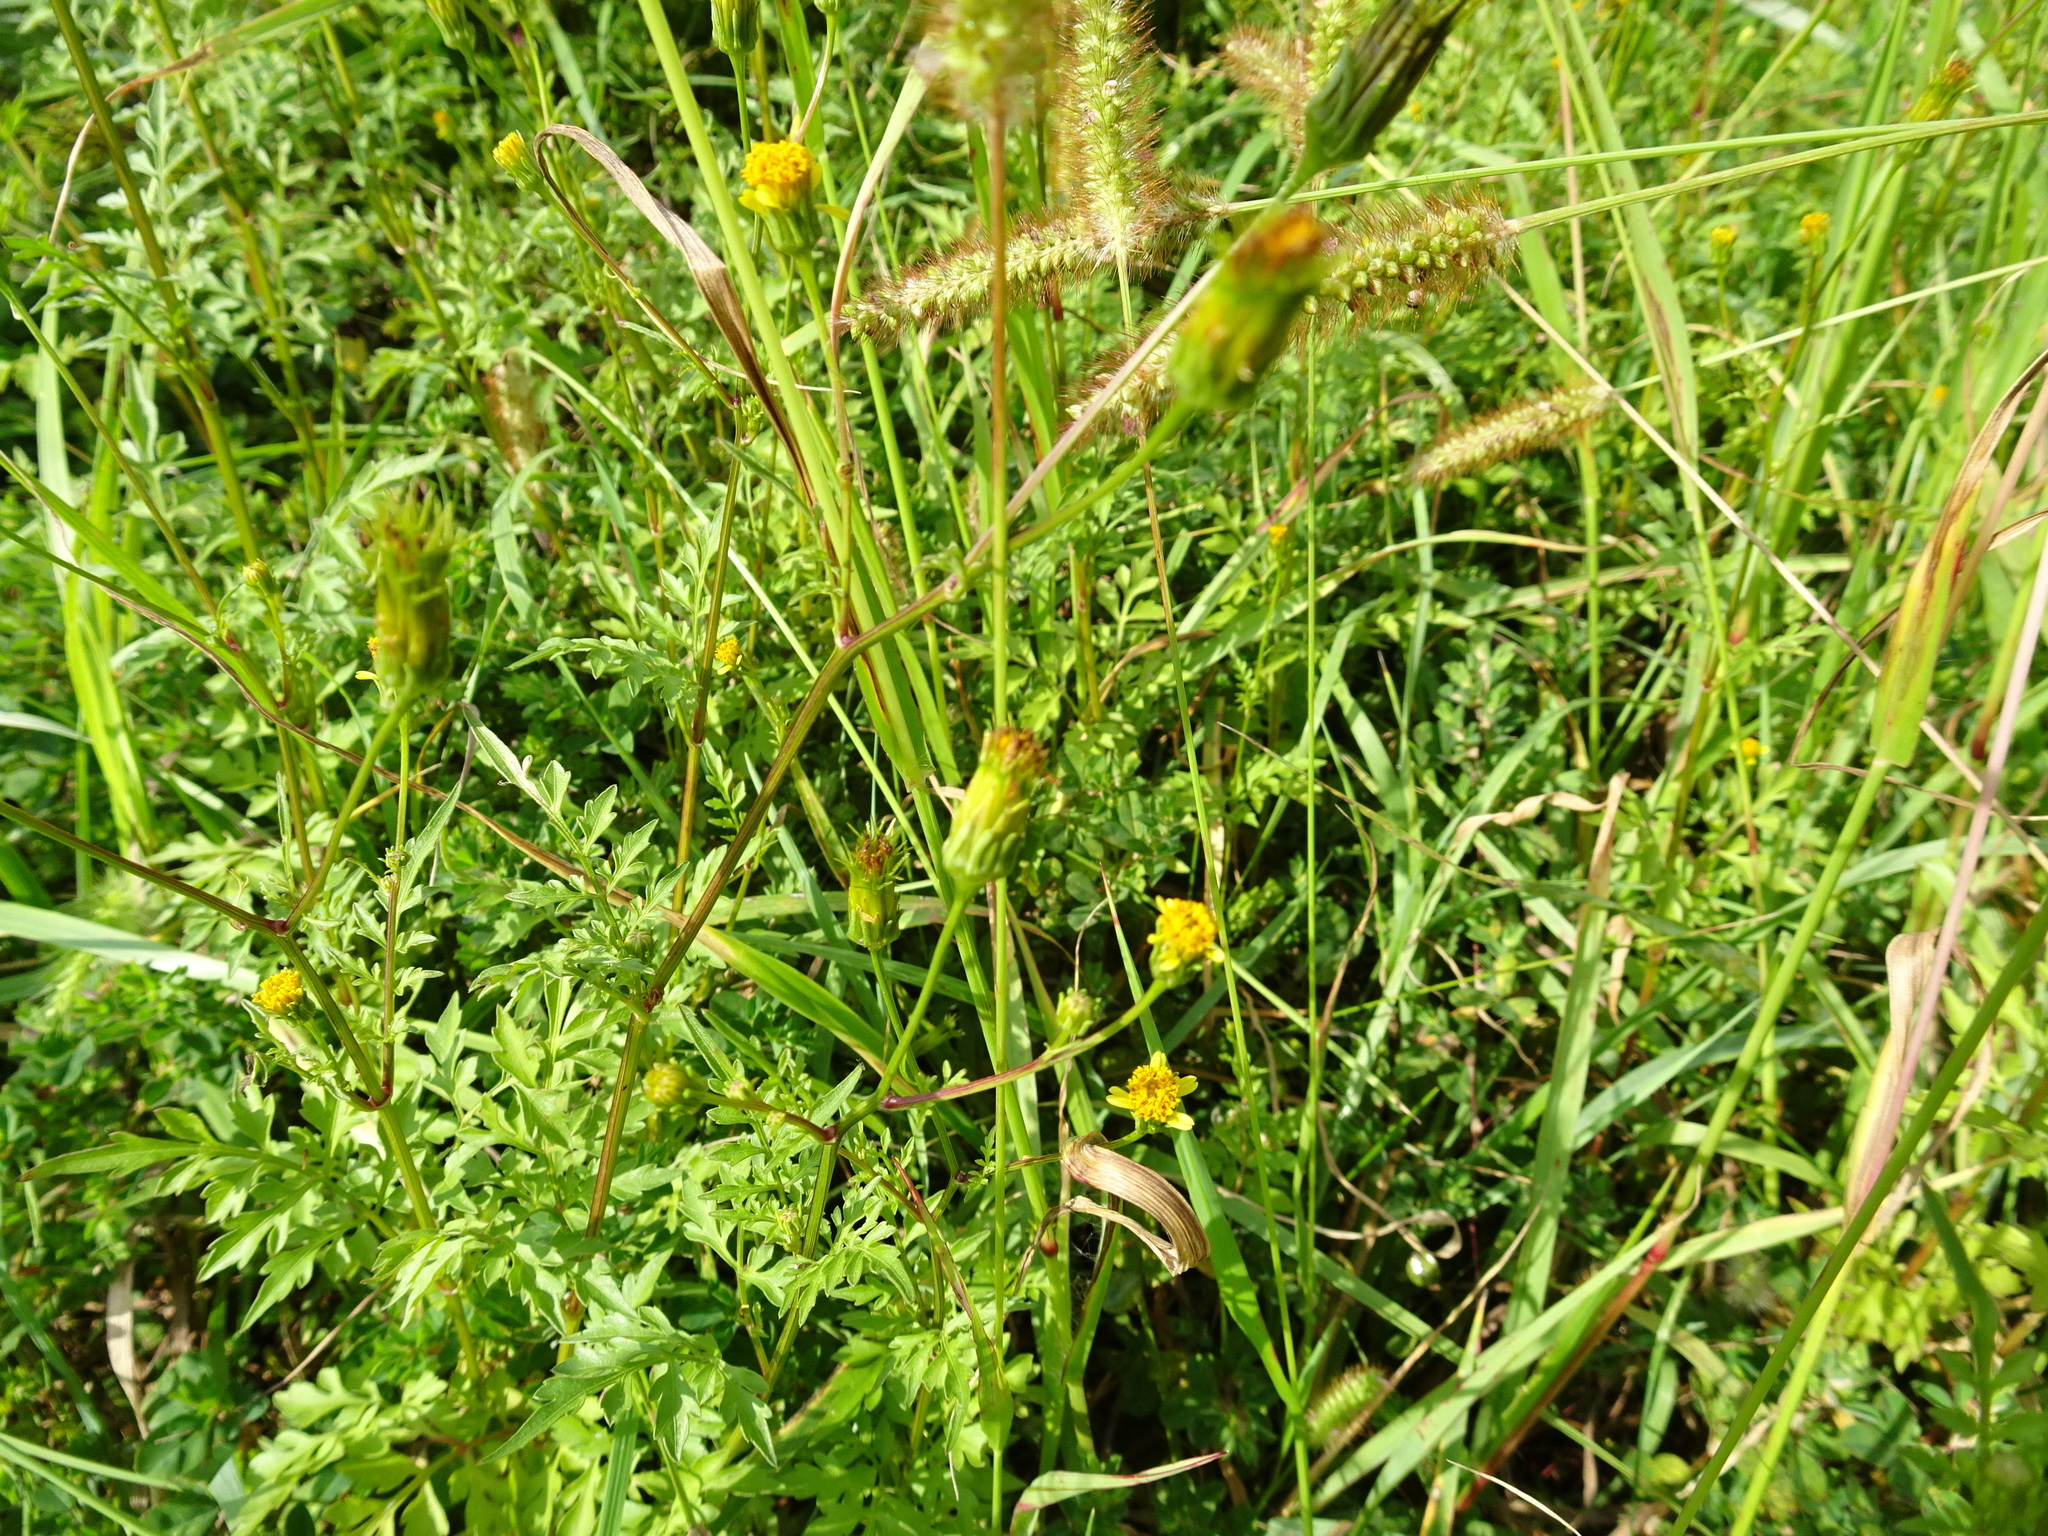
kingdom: Plantae
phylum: Tracheophyta
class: Magnoliopsida
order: Asterales
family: Asteraceae
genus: Bidens
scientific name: Bidens bipinnata
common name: Spanish-needles
